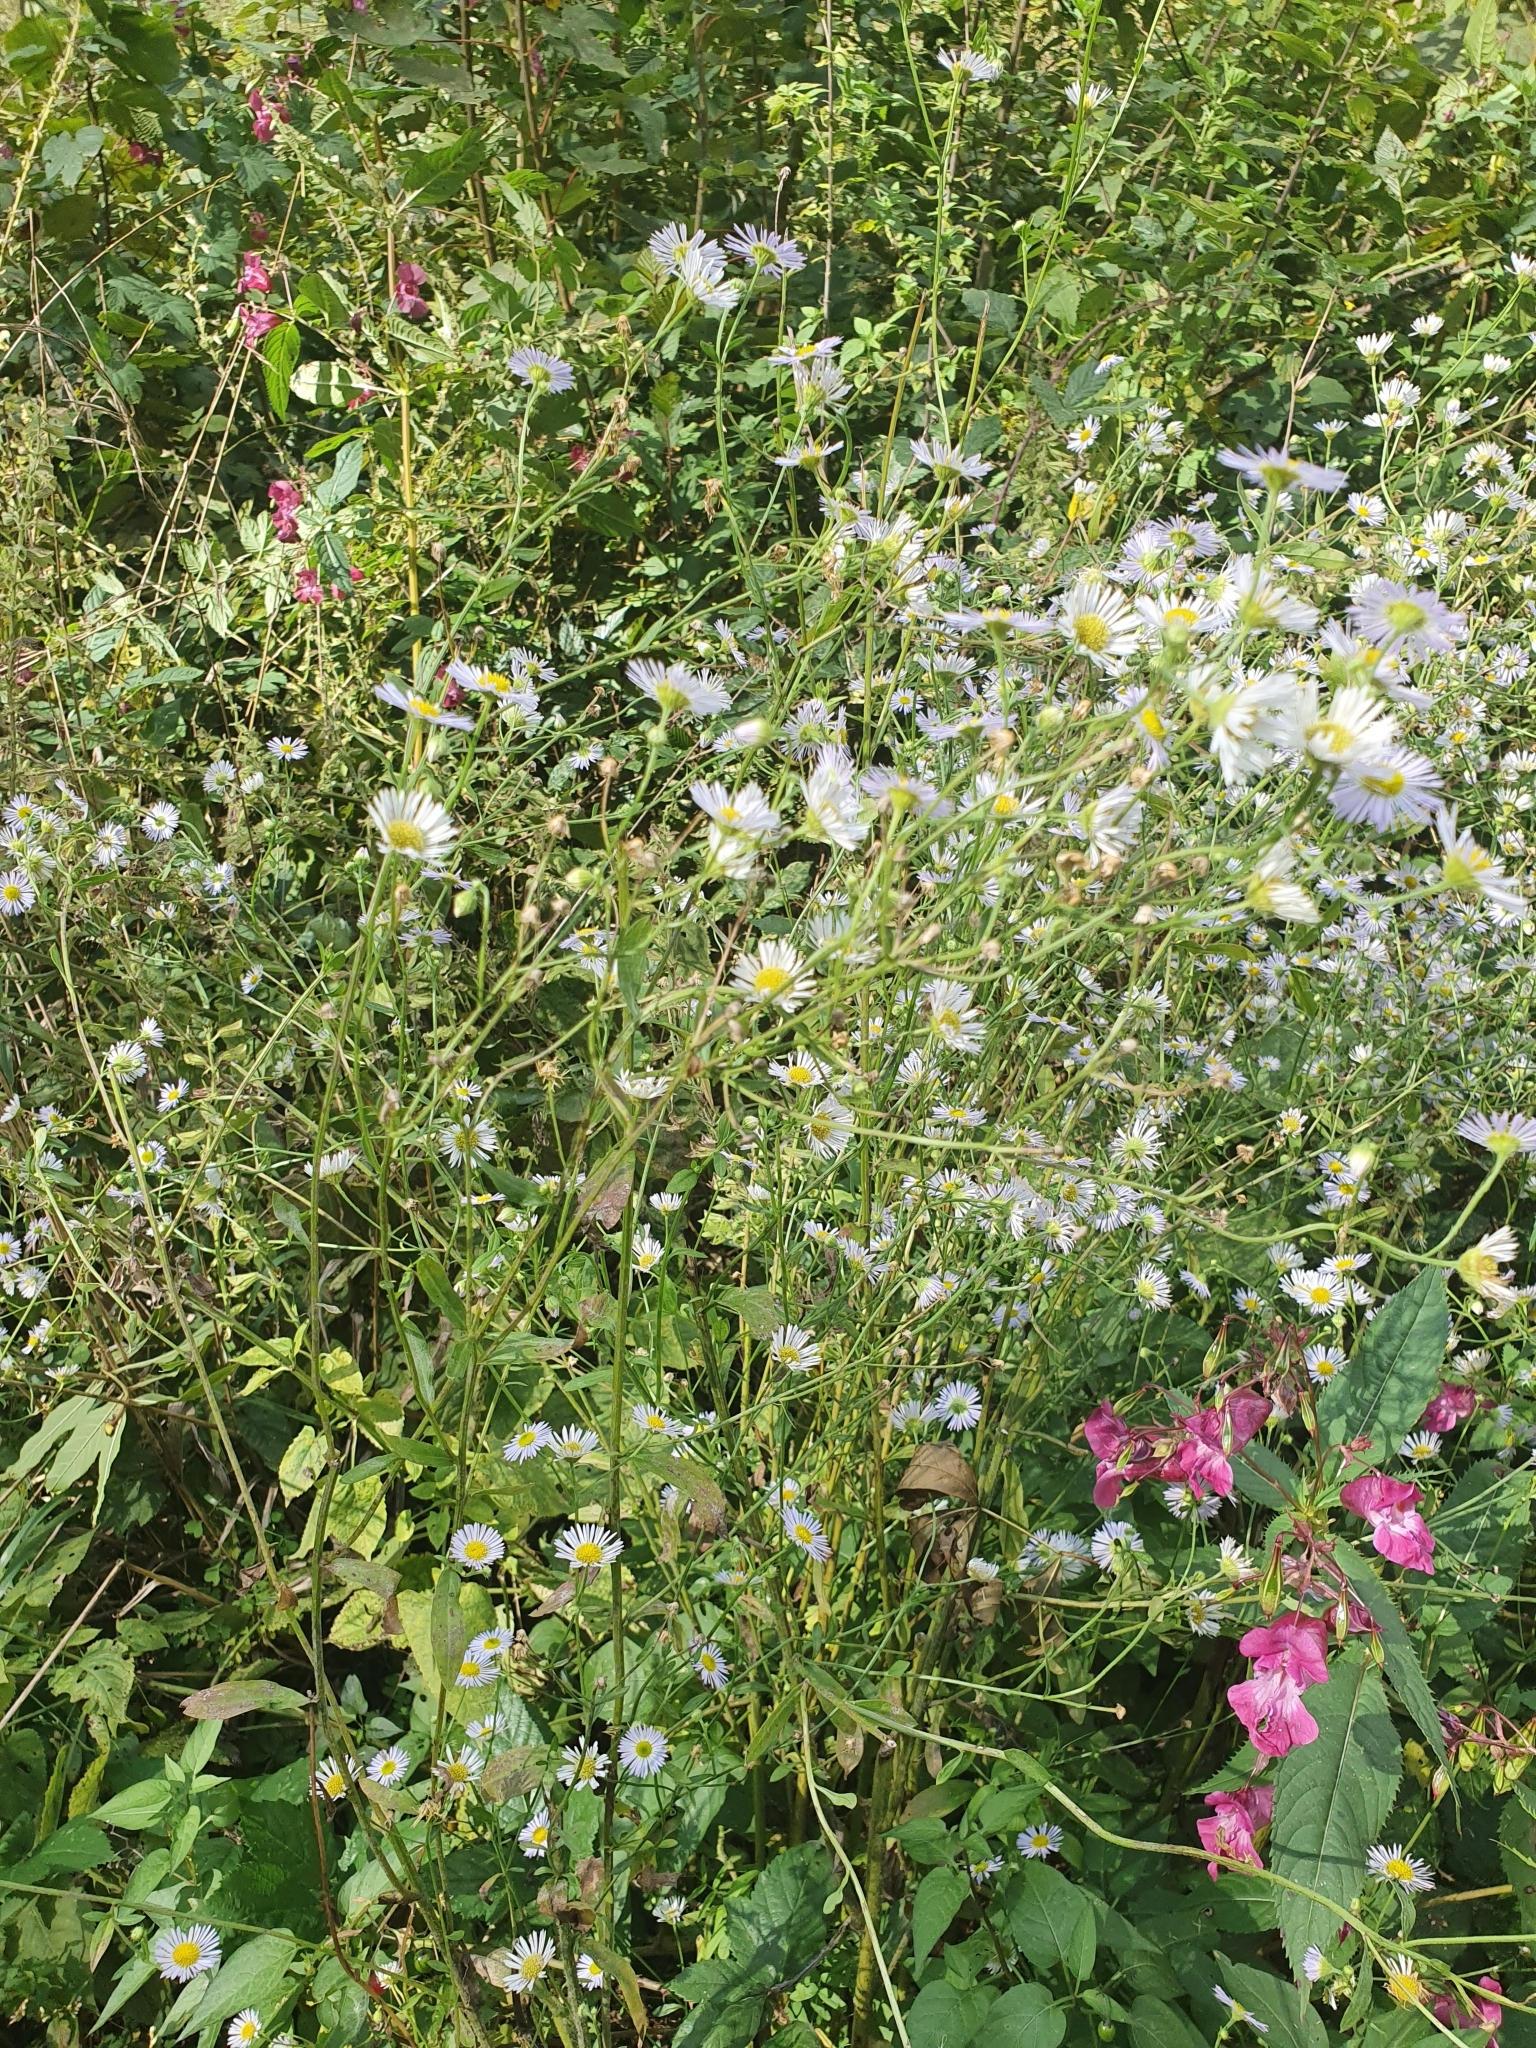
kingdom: Plantae
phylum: Tracheophyta
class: Magnoliopsida
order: Asterales
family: Asteraceae
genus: Erigeron
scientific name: Erigeron annuus
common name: Tall fleabane
